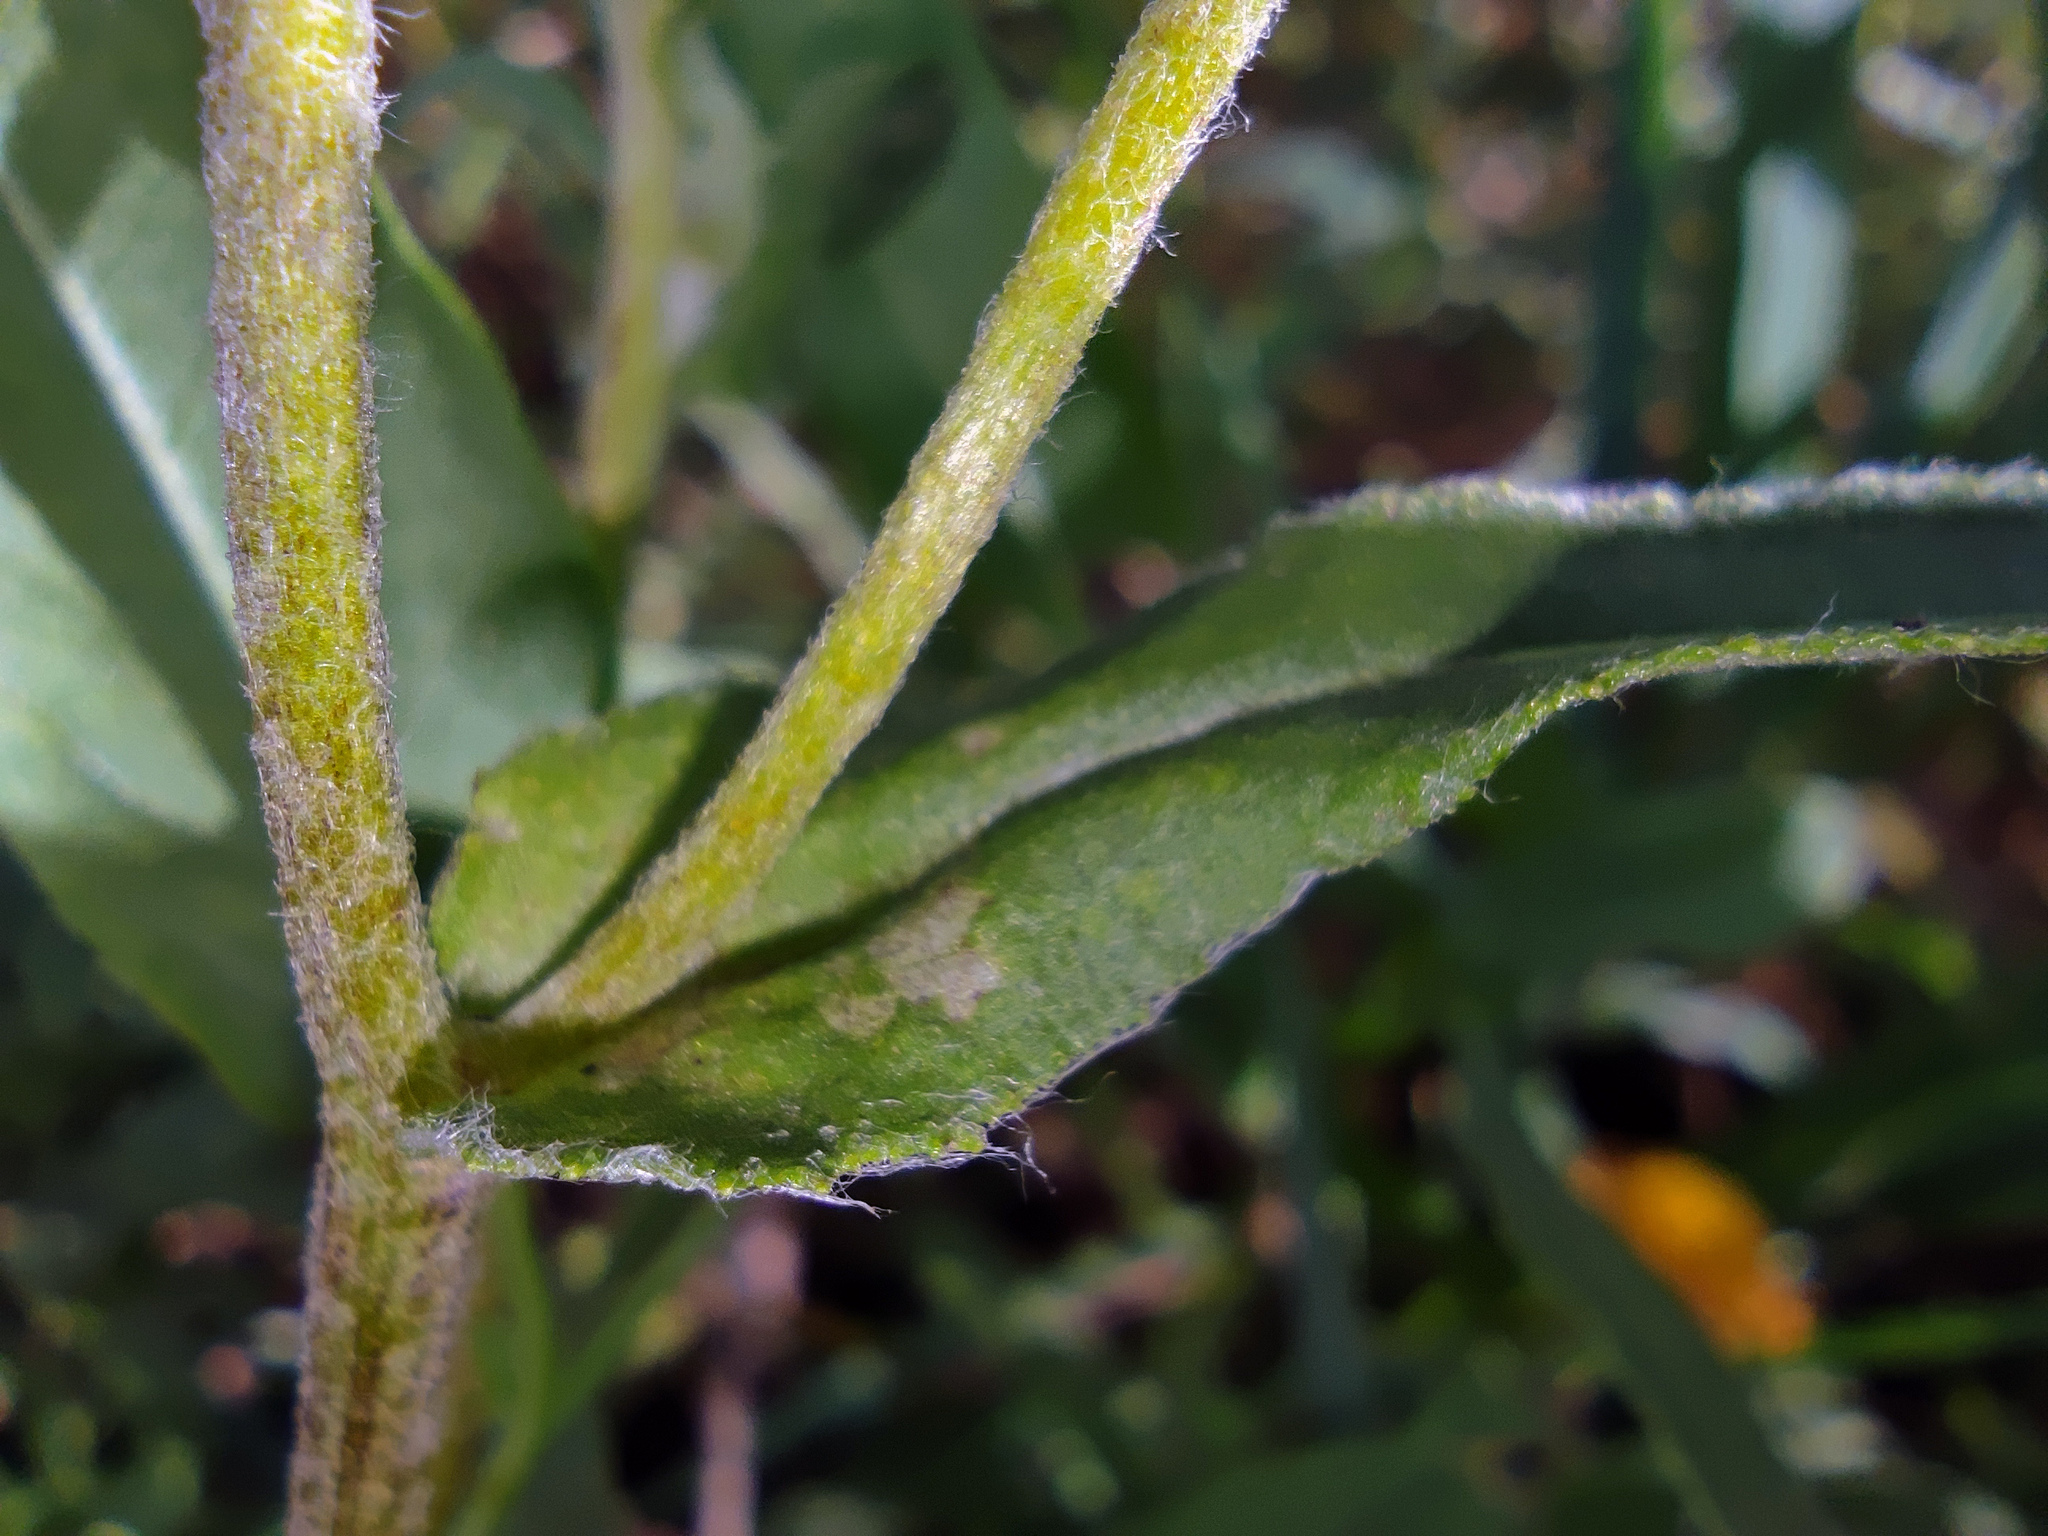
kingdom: Plantae
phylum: Tracheophyta
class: Magnoliopsida
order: Asterales
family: Asteraceae
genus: Pentanema
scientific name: Pentanema britannicum
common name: British elecampane
